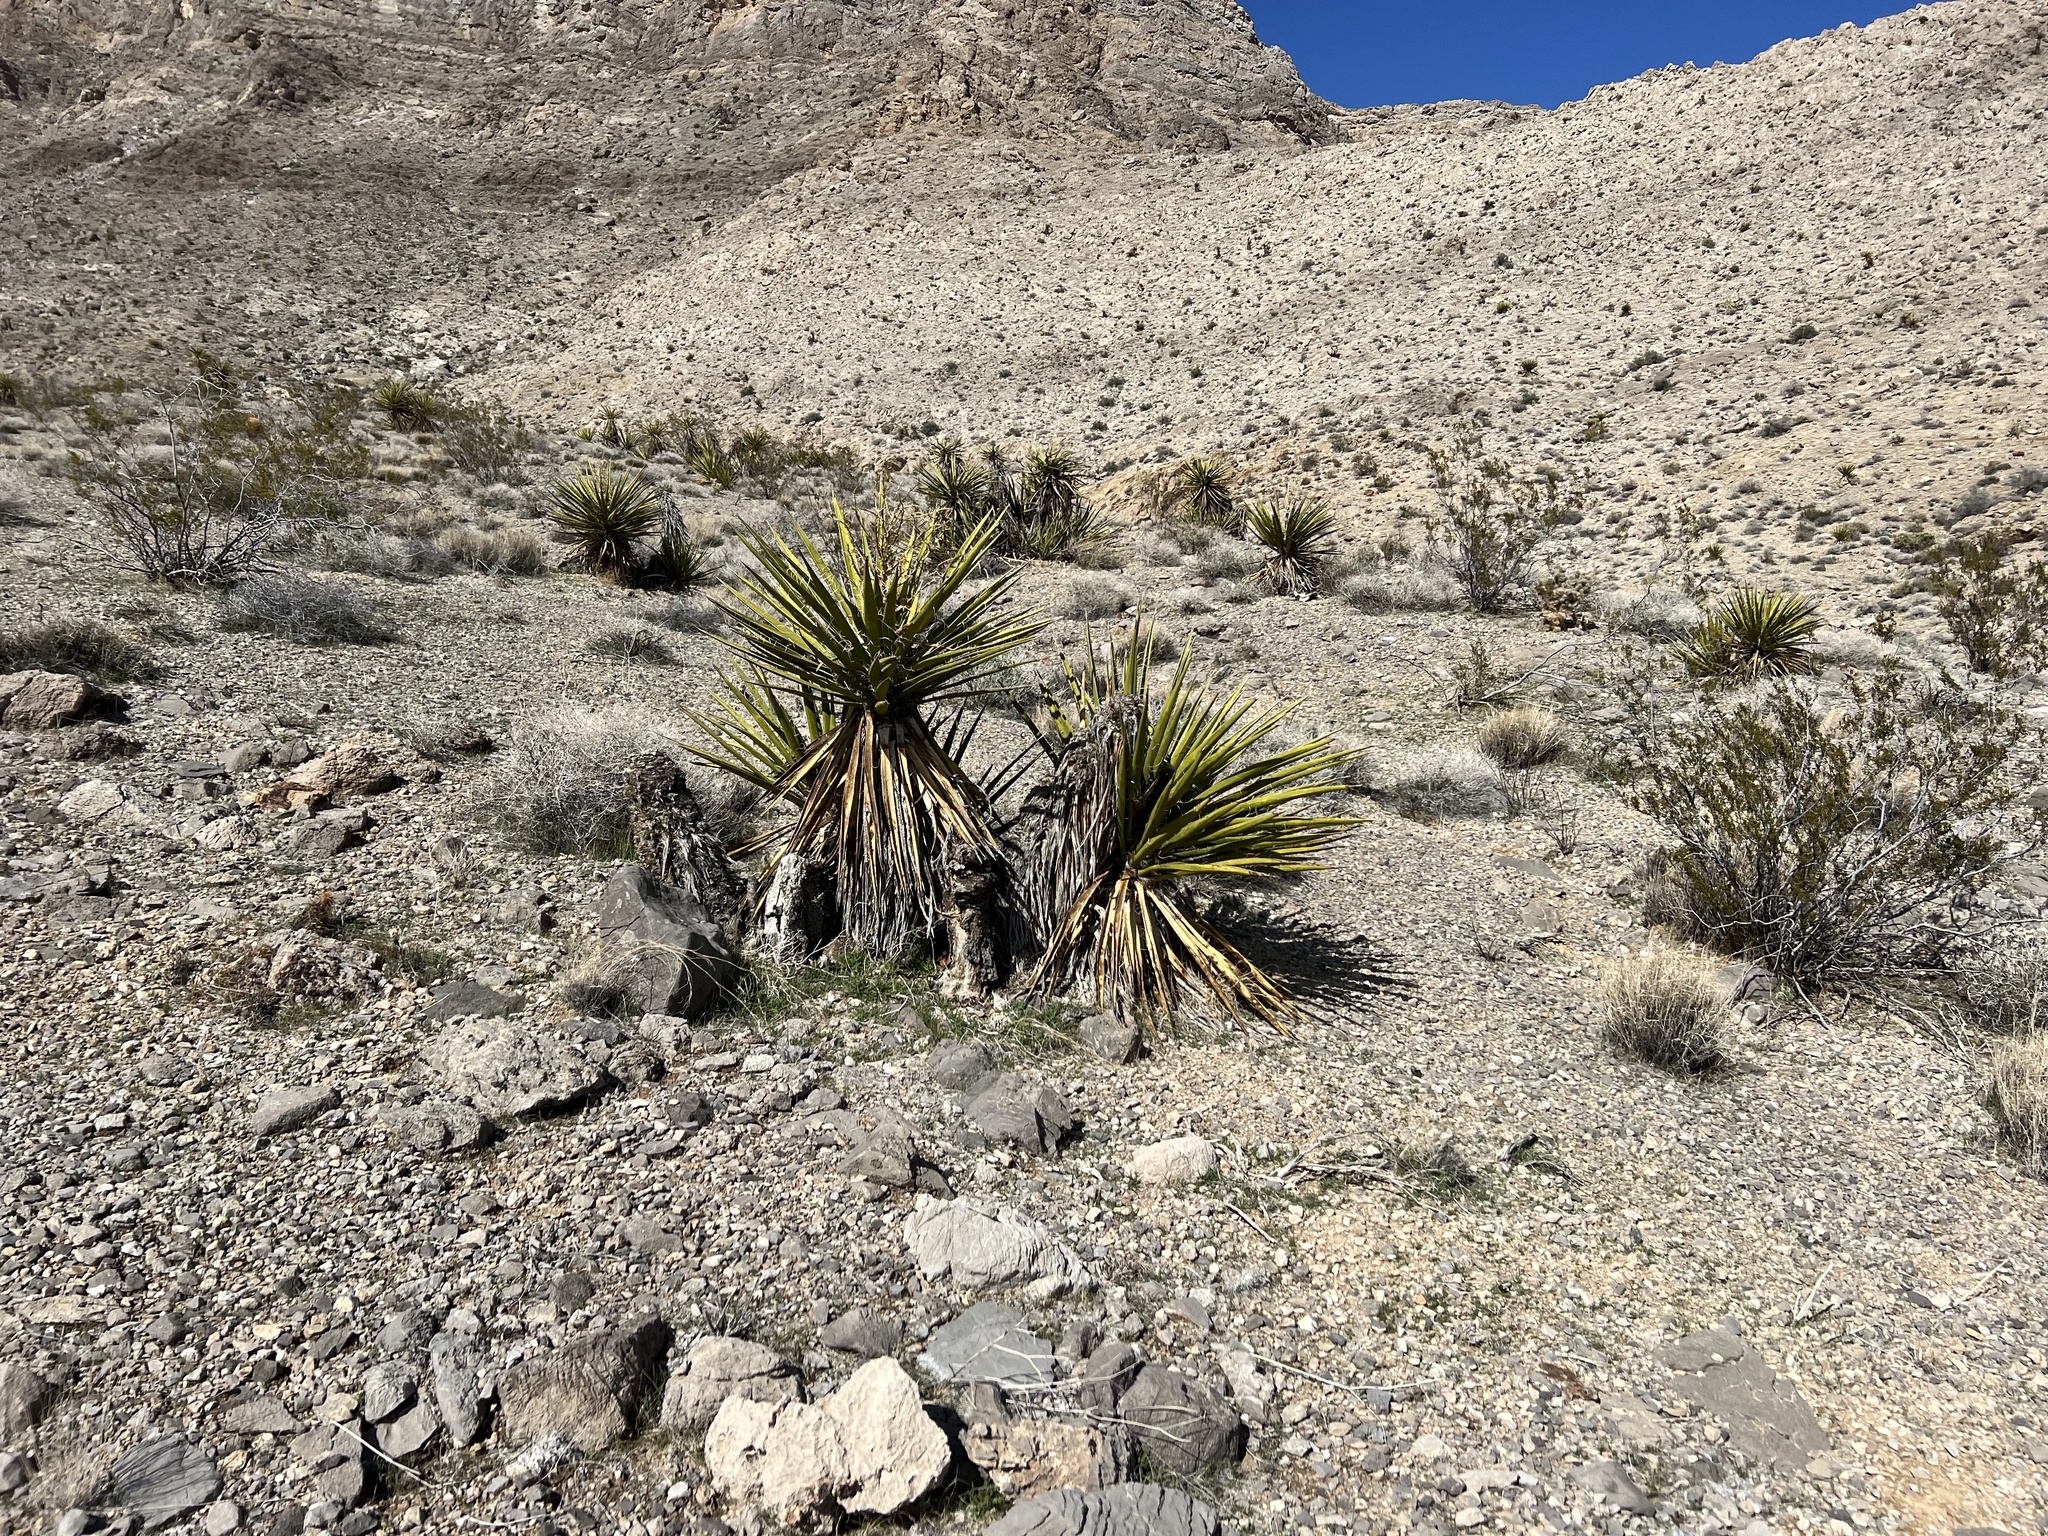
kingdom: Plantae
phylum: Tracheophyta
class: Liliopsida
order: Asparagales
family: Asparagaceae
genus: Yucca
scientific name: Yucca schidigera
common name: Mojave yucca
